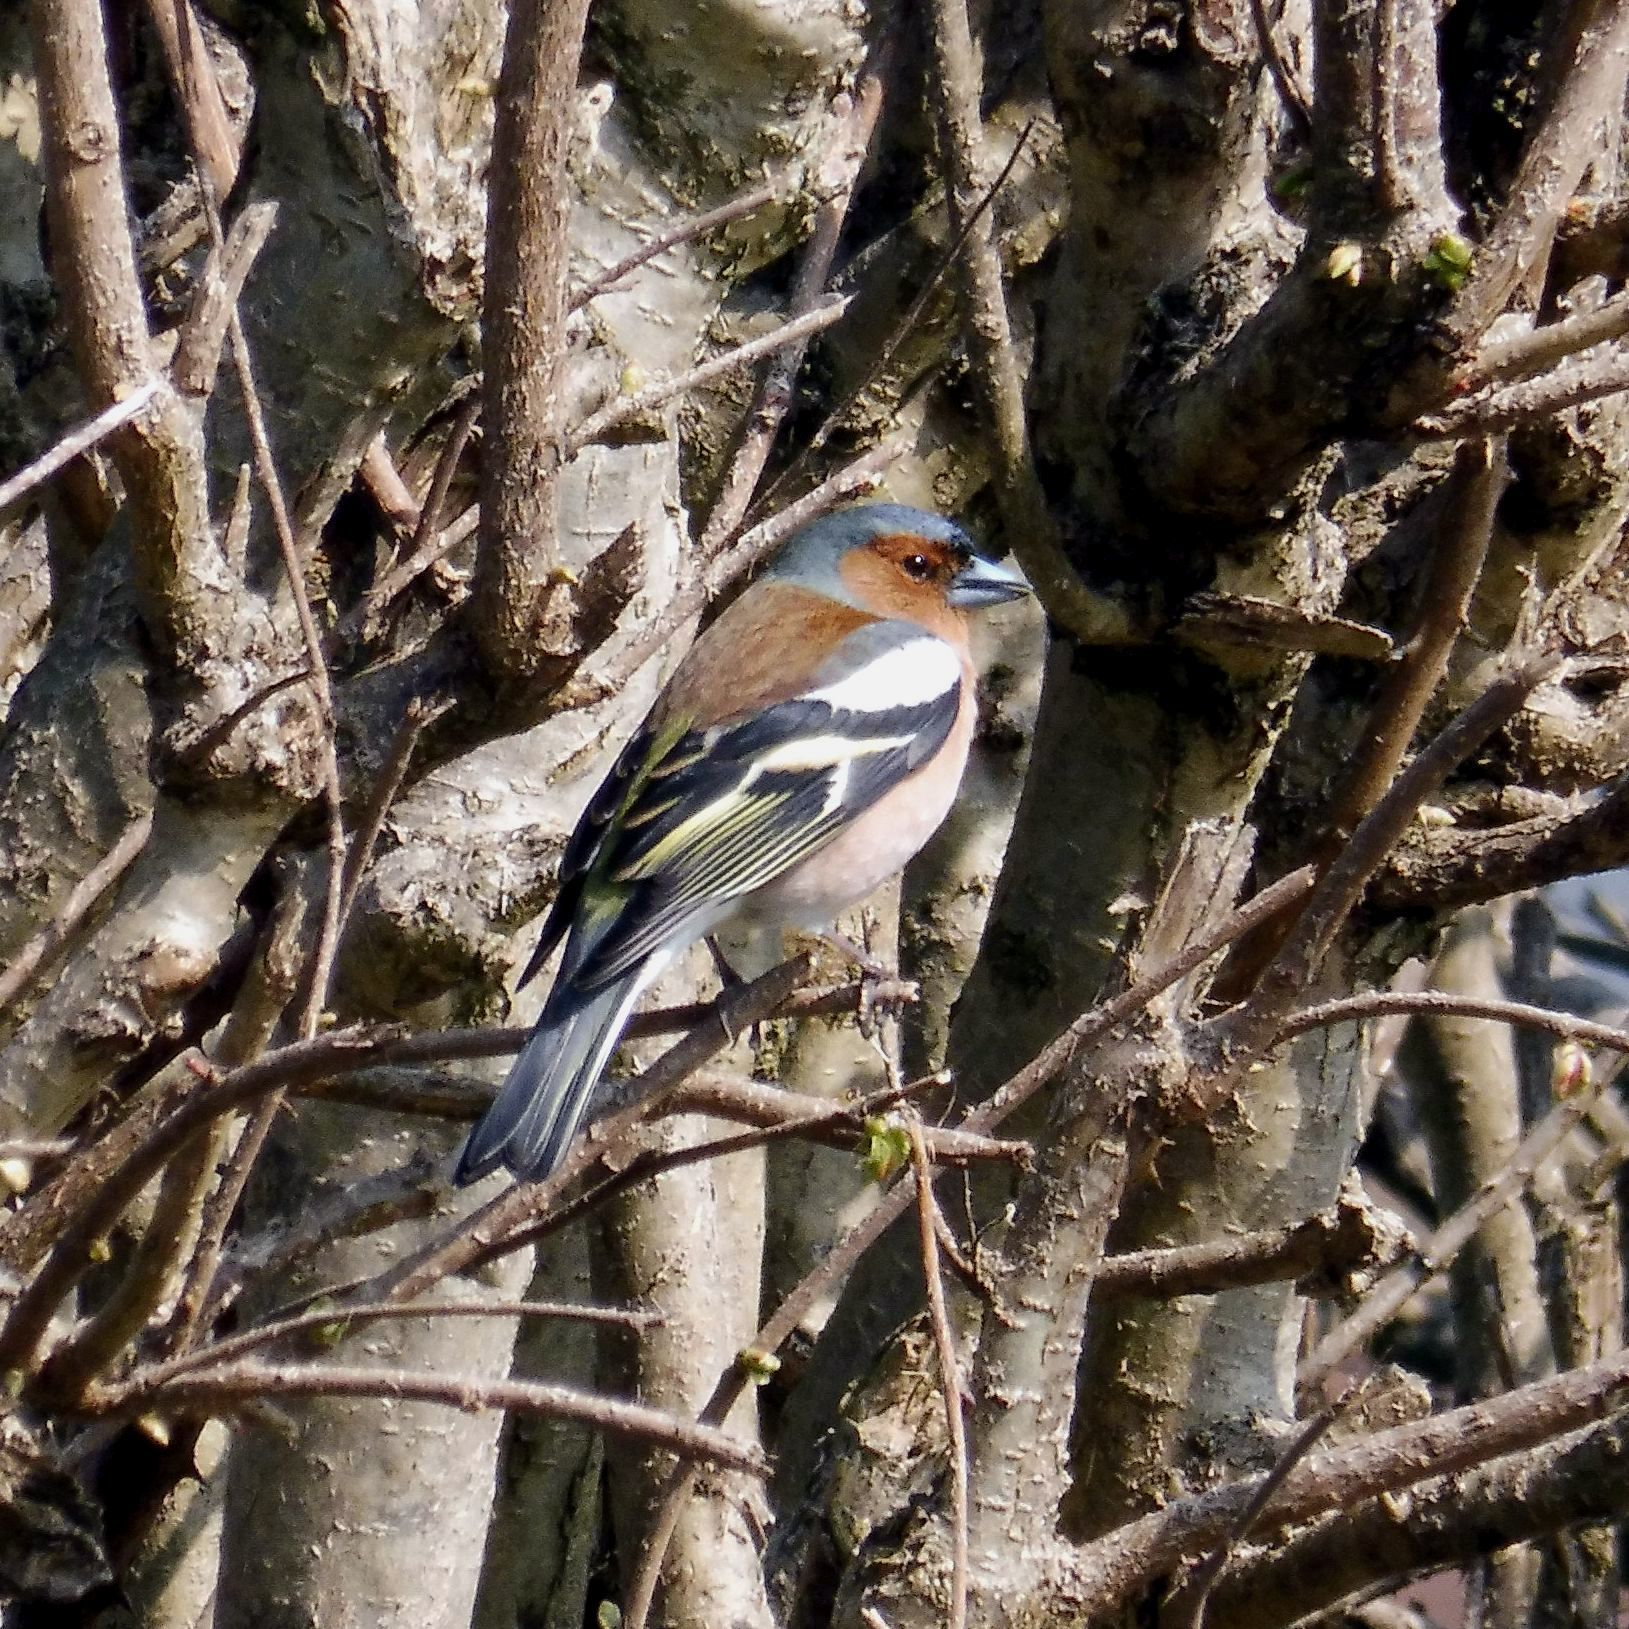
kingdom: Animalia
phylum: Chordata
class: Aves
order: Passeriformes
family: Fringillidae
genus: Fringilla
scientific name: Fringilla coelebs
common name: Common chaffinch
